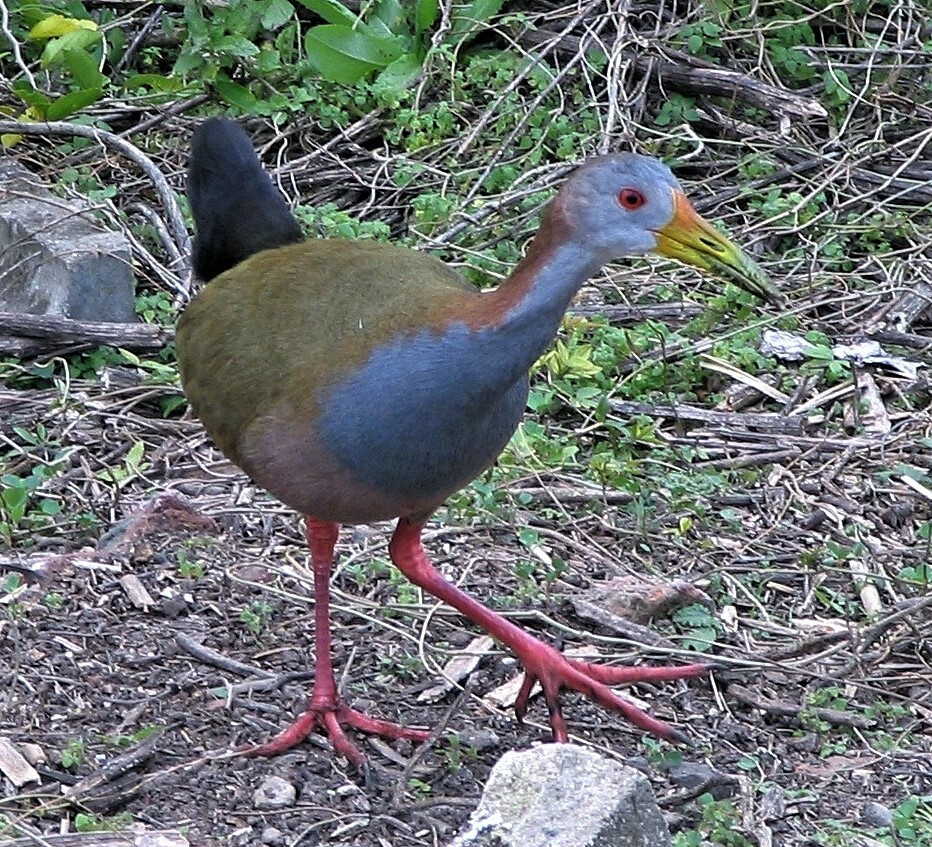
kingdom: Animalia
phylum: Chordata
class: Aves
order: Gruiformes
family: Rallidae
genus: Aramides
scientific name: Aramides ypecaha
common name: Giant wood rail
